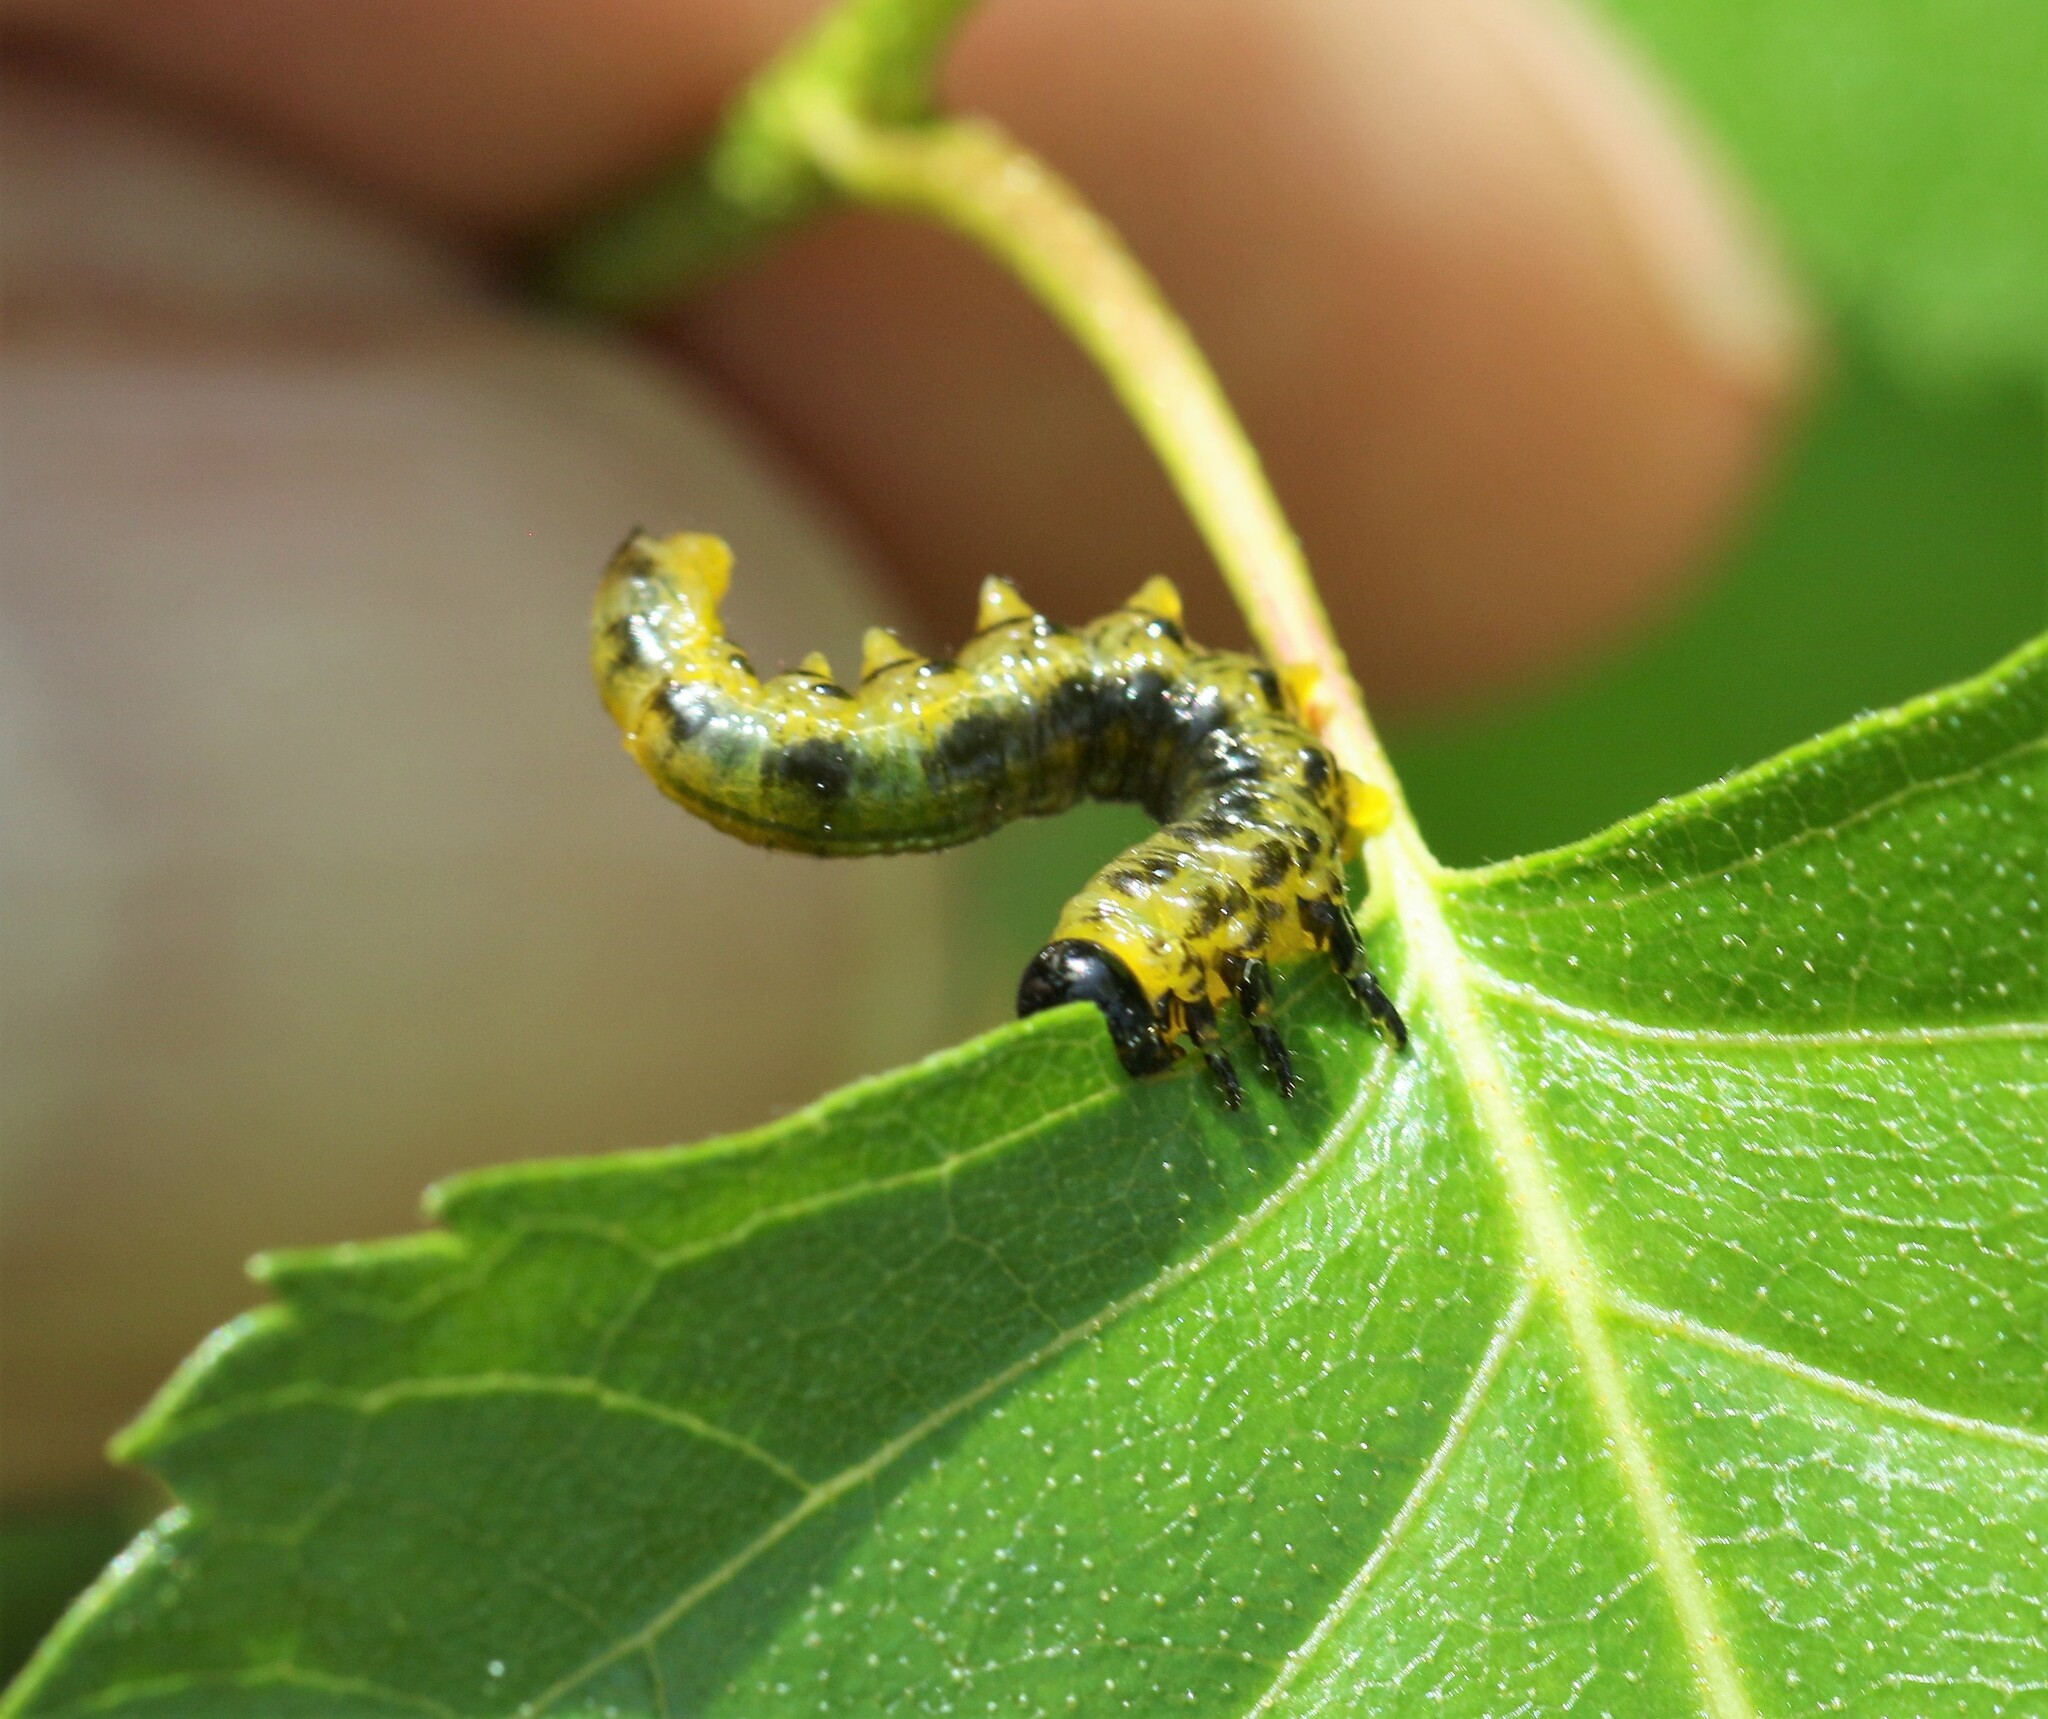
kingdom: Animalia
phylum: Arthropoda
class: Insecta
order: Hymenoptera
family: Tenthredinidae
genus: Nematus
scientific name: Nematus
